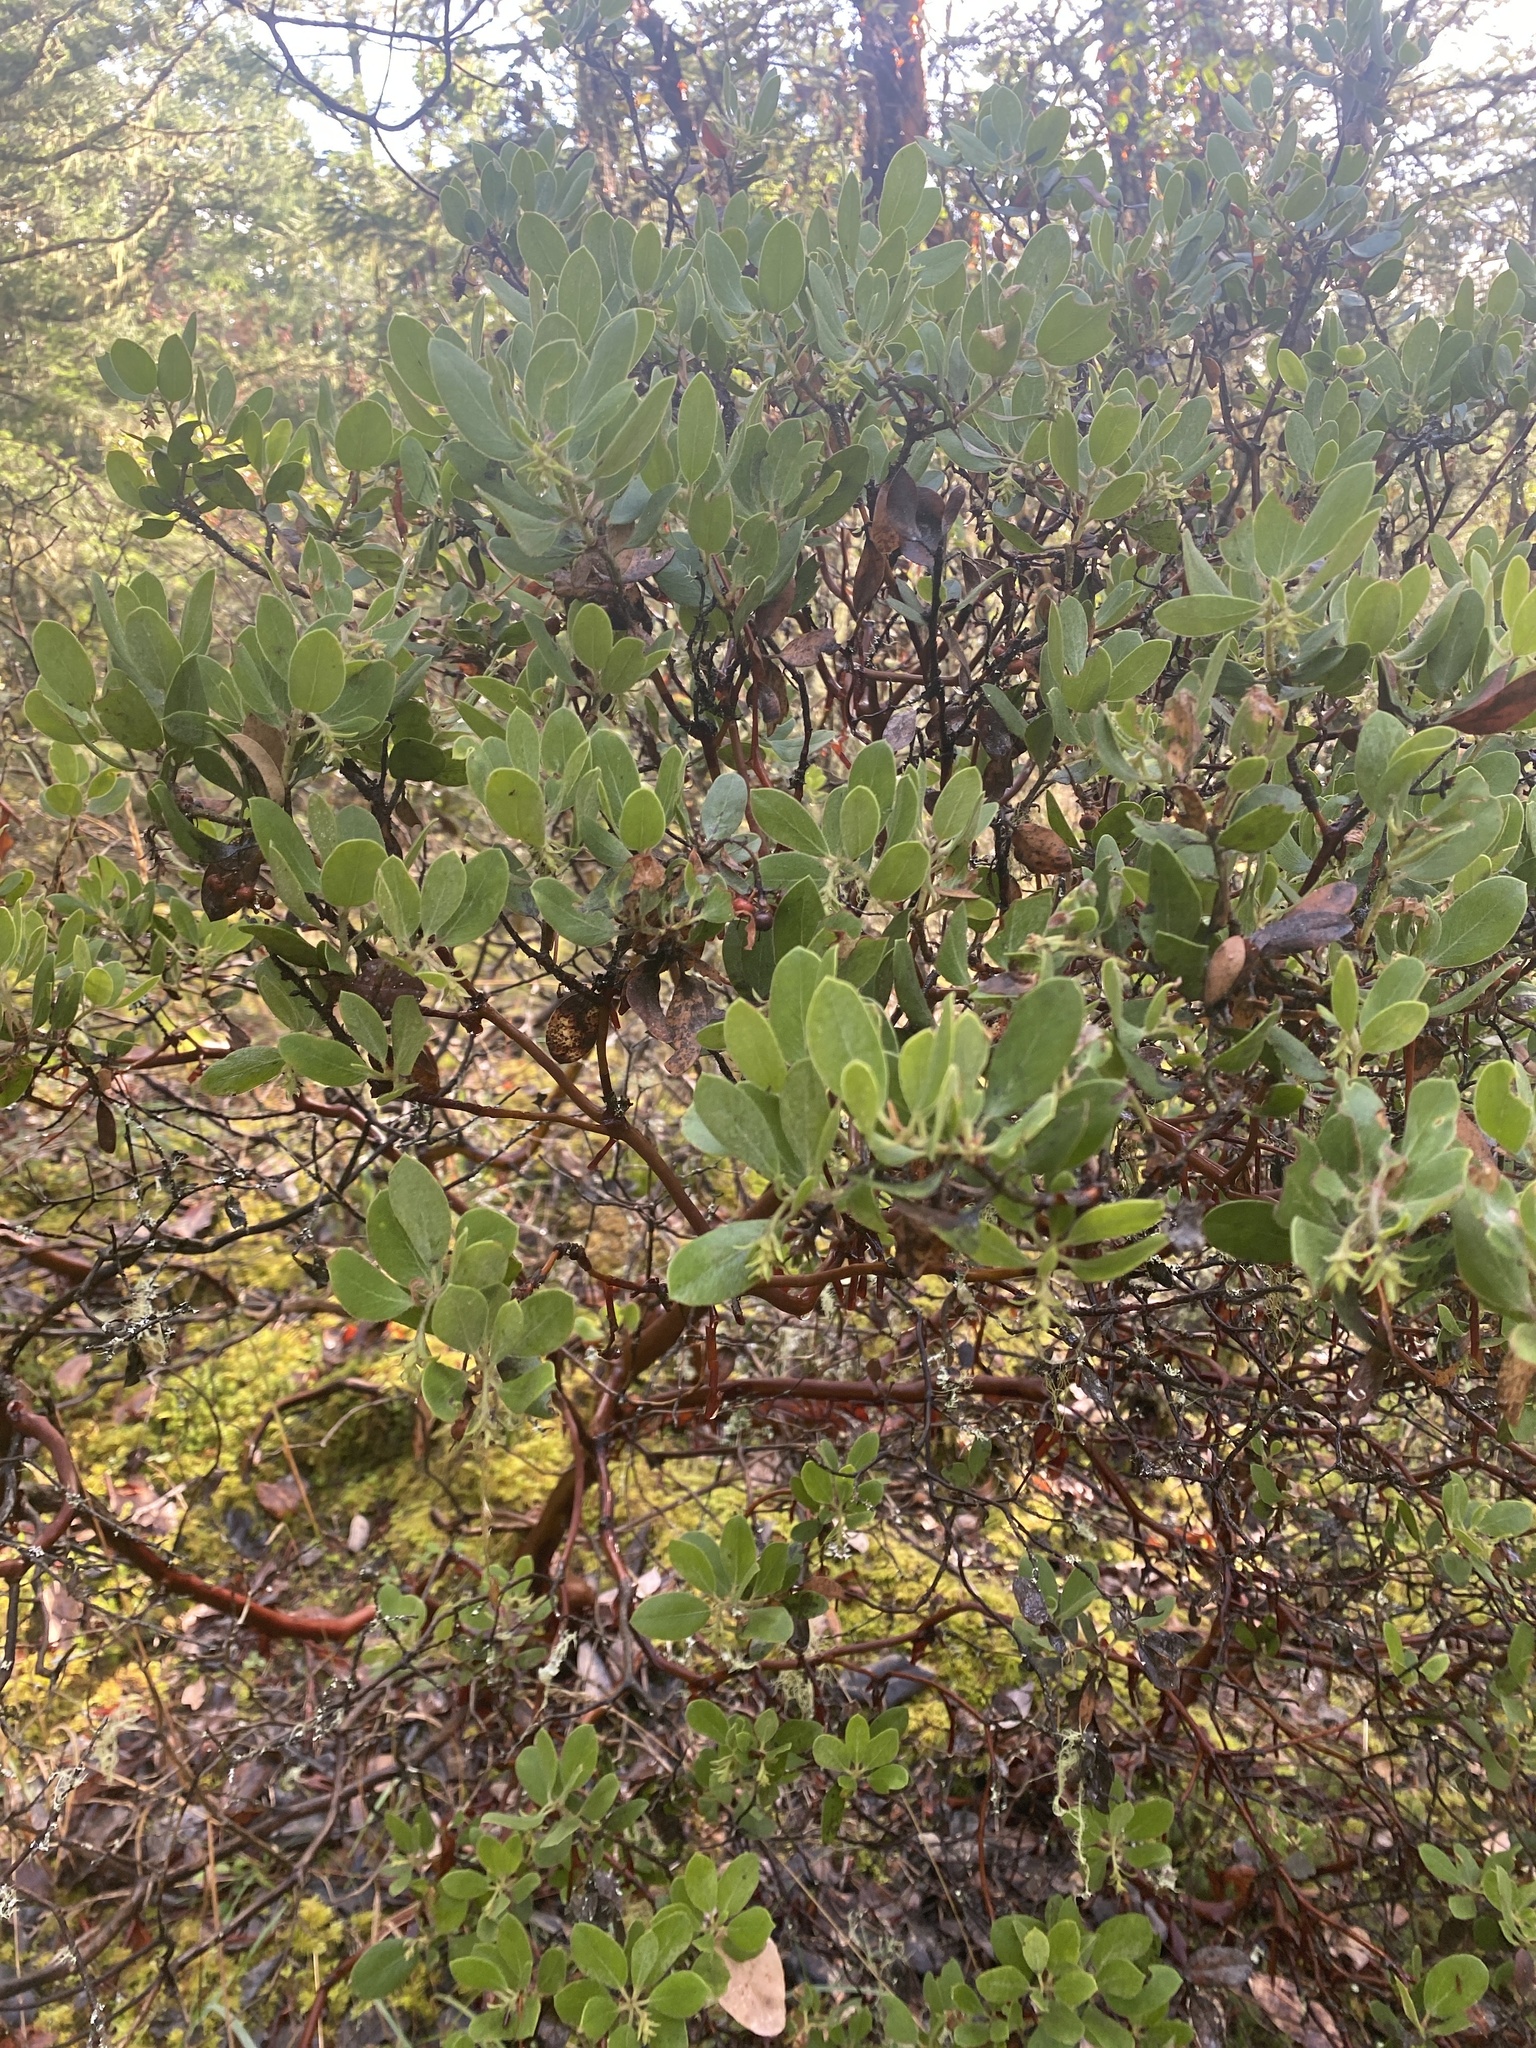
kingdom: Plantae
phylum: Tracheophyta
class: Magnoliopsida
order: Ericales
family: Ericaceae
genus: Arctostaphylos
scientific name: Arctostaphylos columbiana
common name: Bristly bearberry
